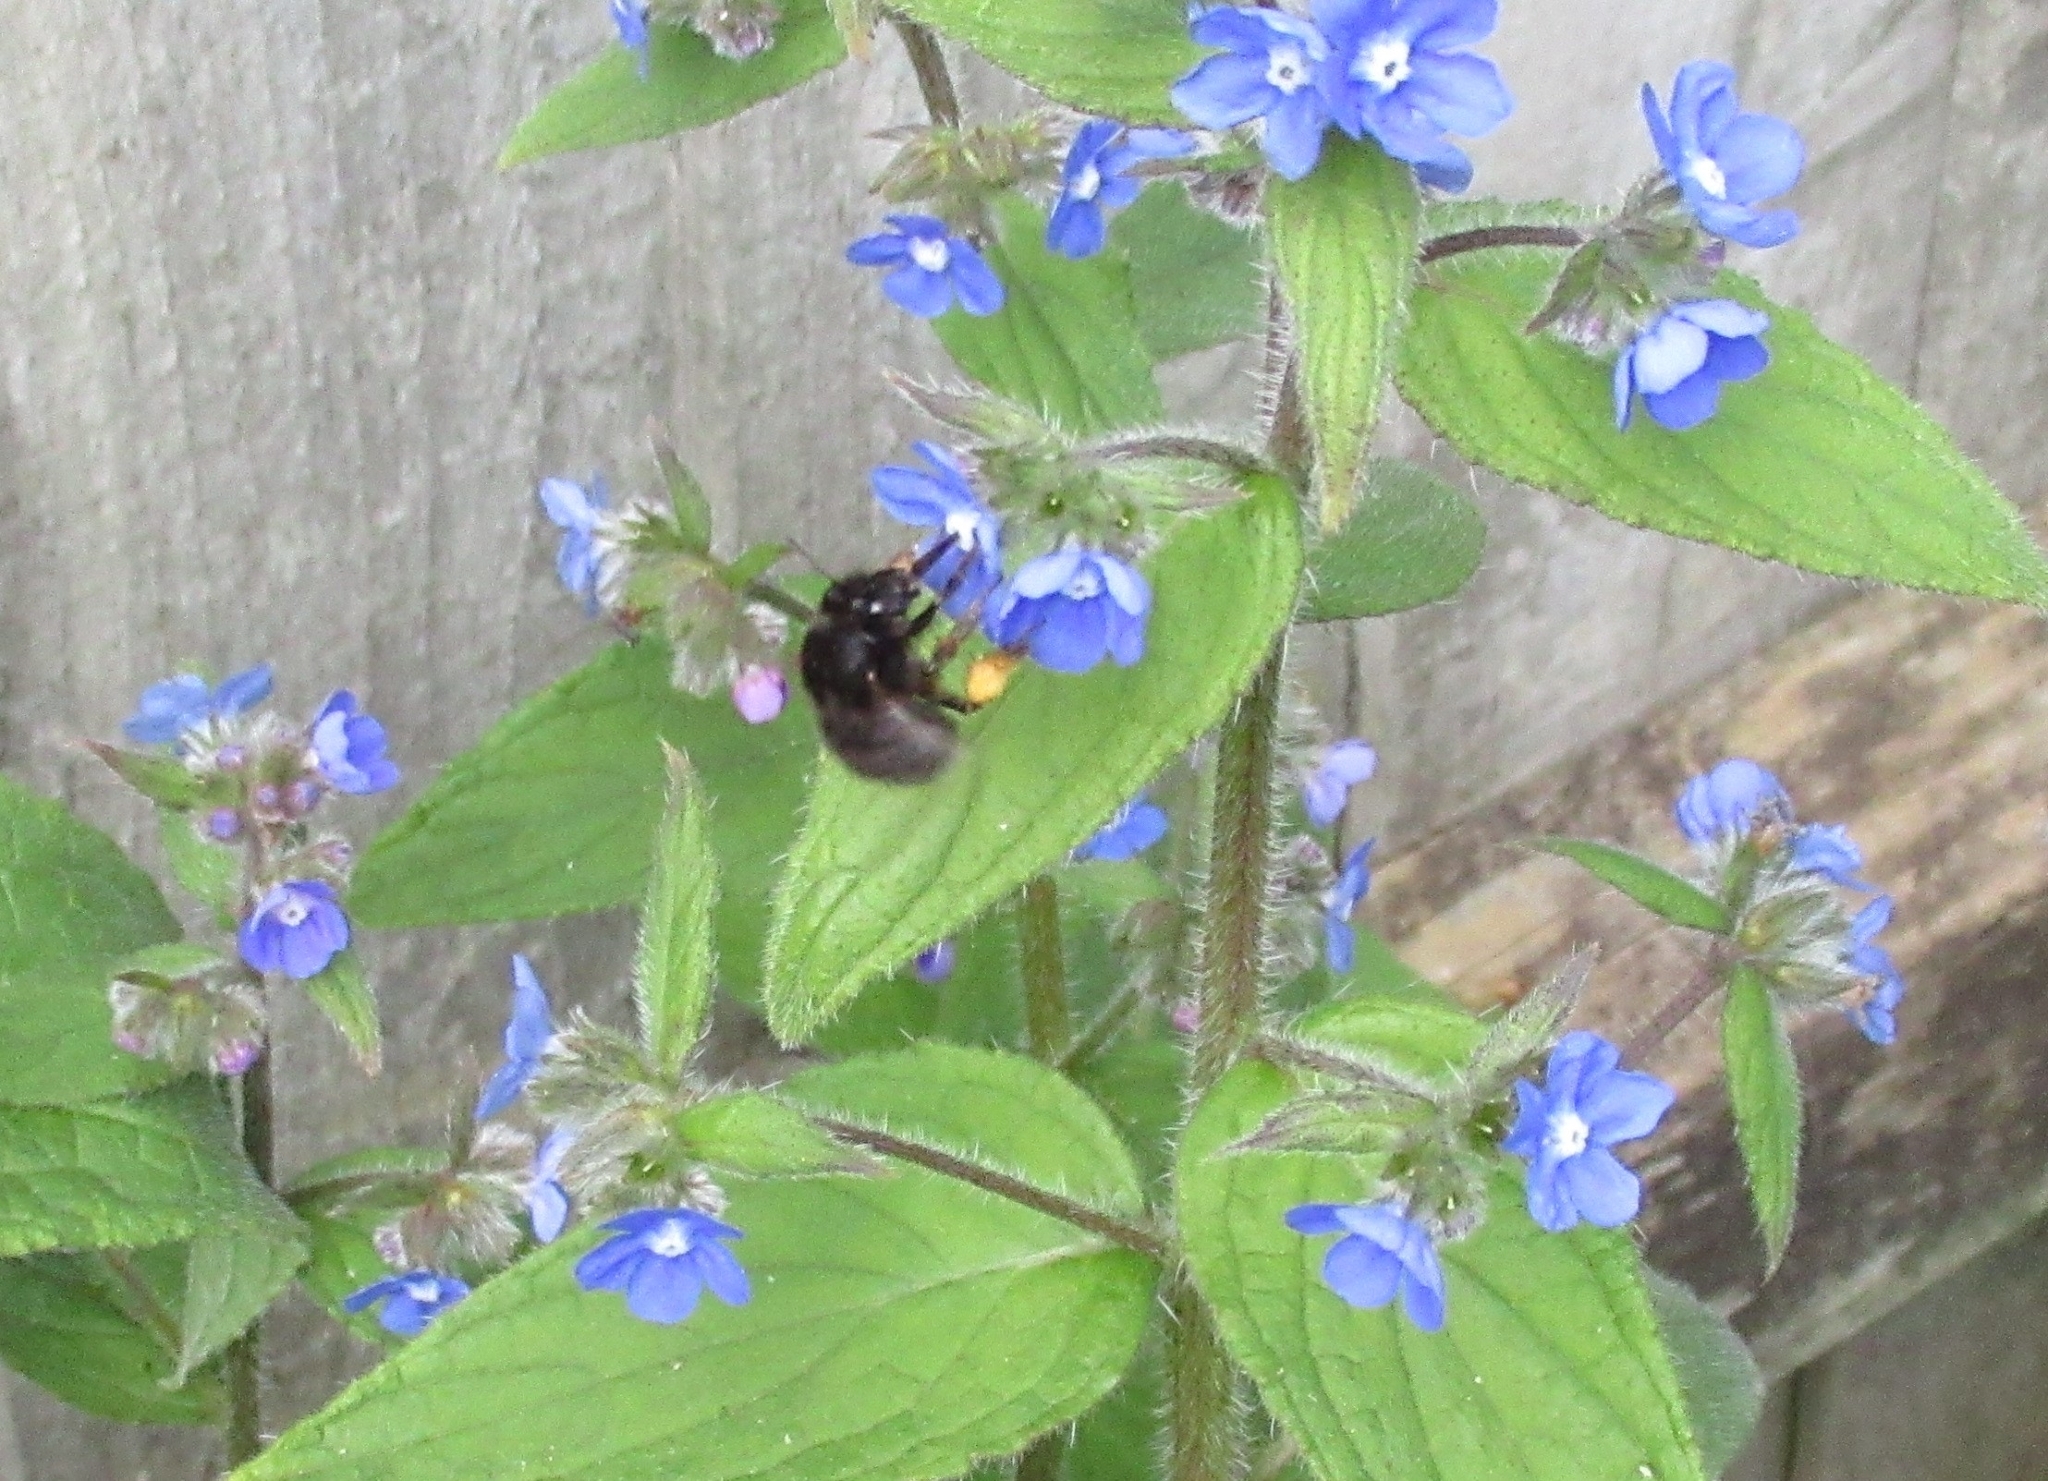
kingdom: Animalia
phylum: Arthropoda
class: Insecta
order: Hymenoptera
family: Apidae
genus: Anthophora
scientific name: Anthophora plumipes
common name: Hairy-footed flower bee
